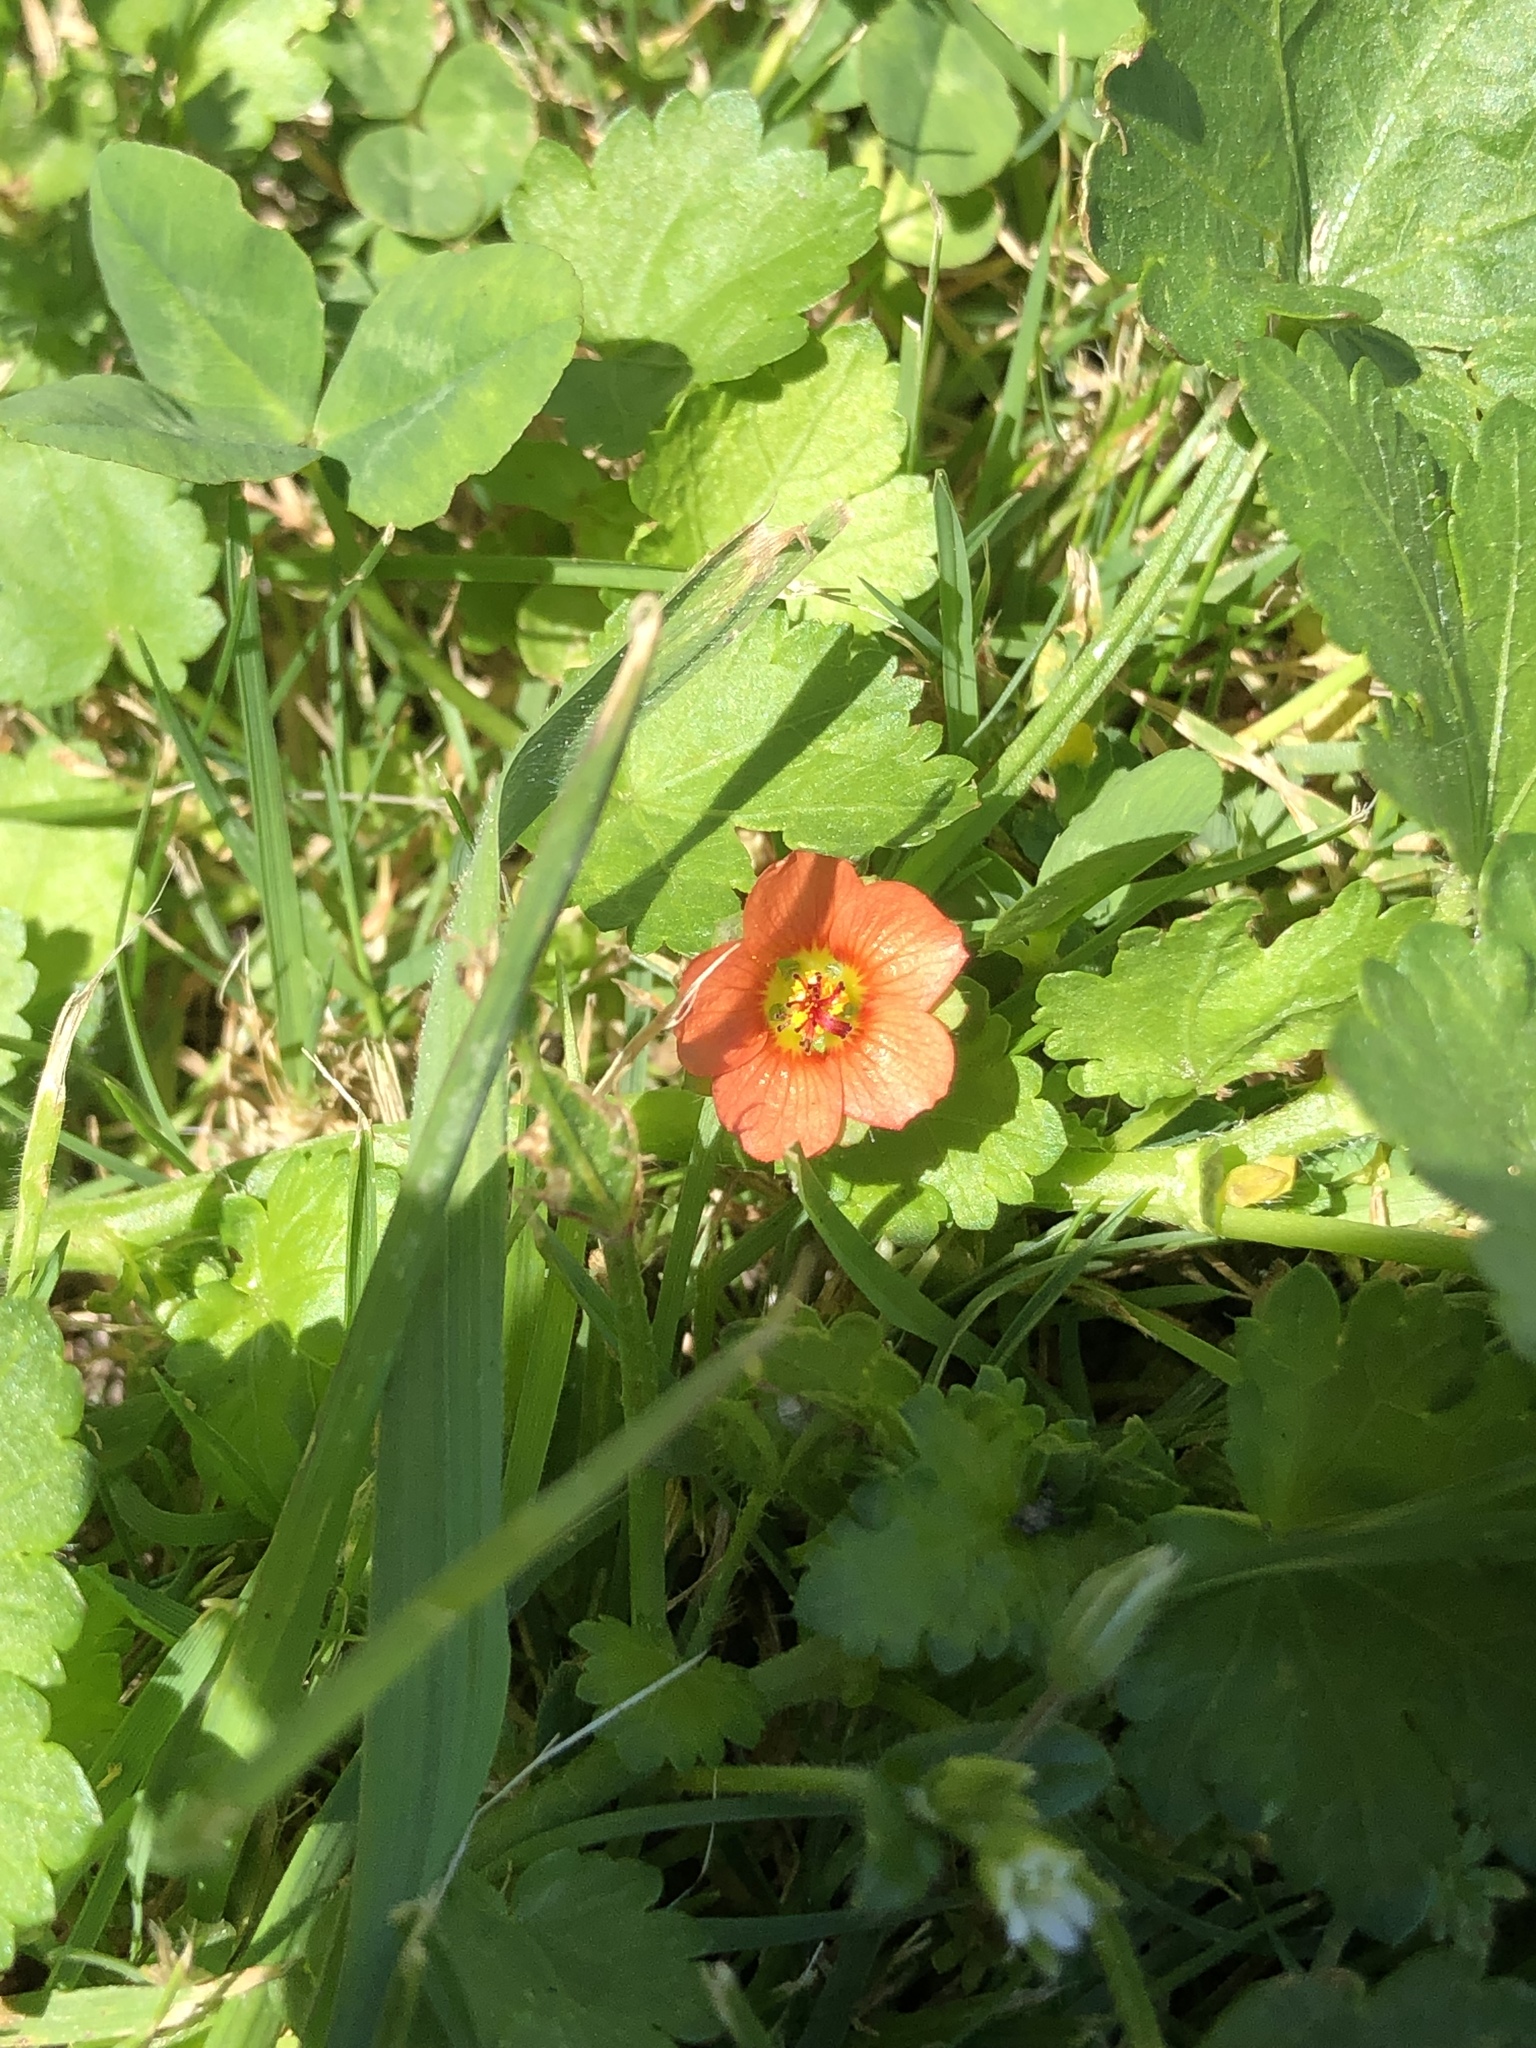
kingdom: Plantae
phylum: Tracheophyta
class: Magnoliopsida
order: Malvales
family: Malvaceae
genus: Modiola
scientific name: Modiola caroliniana
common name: Carolina bristlemallow
